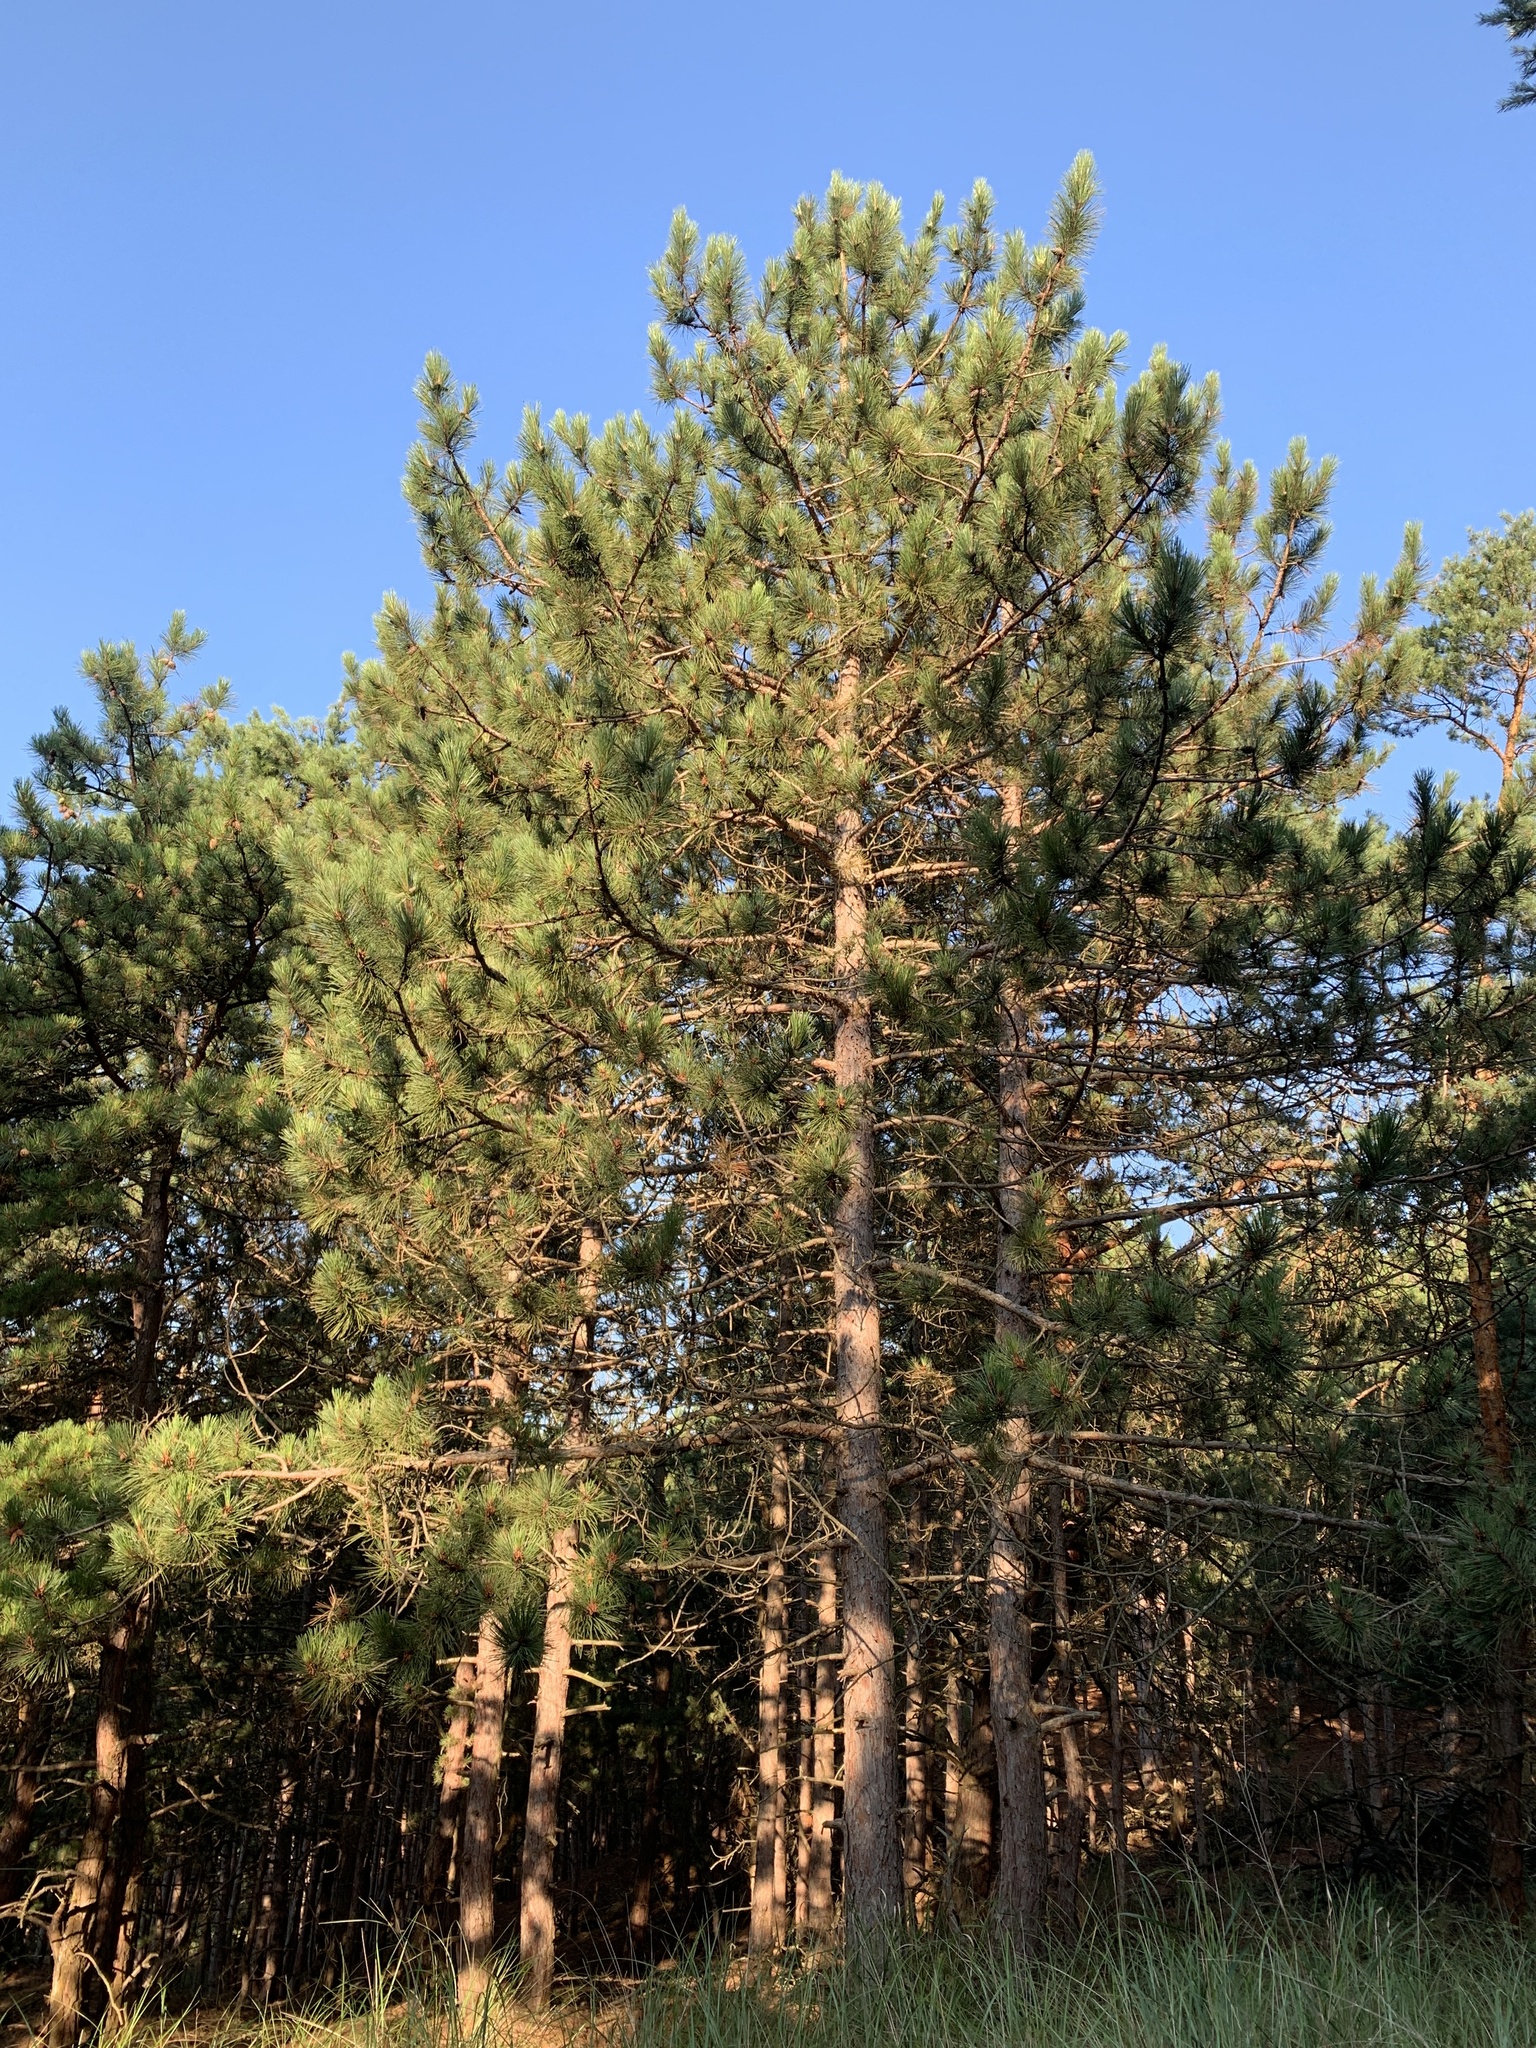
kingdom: Plantae
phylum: Tracheophyta
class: Pinopsida
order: Pinales
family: Pinaceae
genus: Pinus
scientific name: Pinus resinosa
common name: Norway pine
